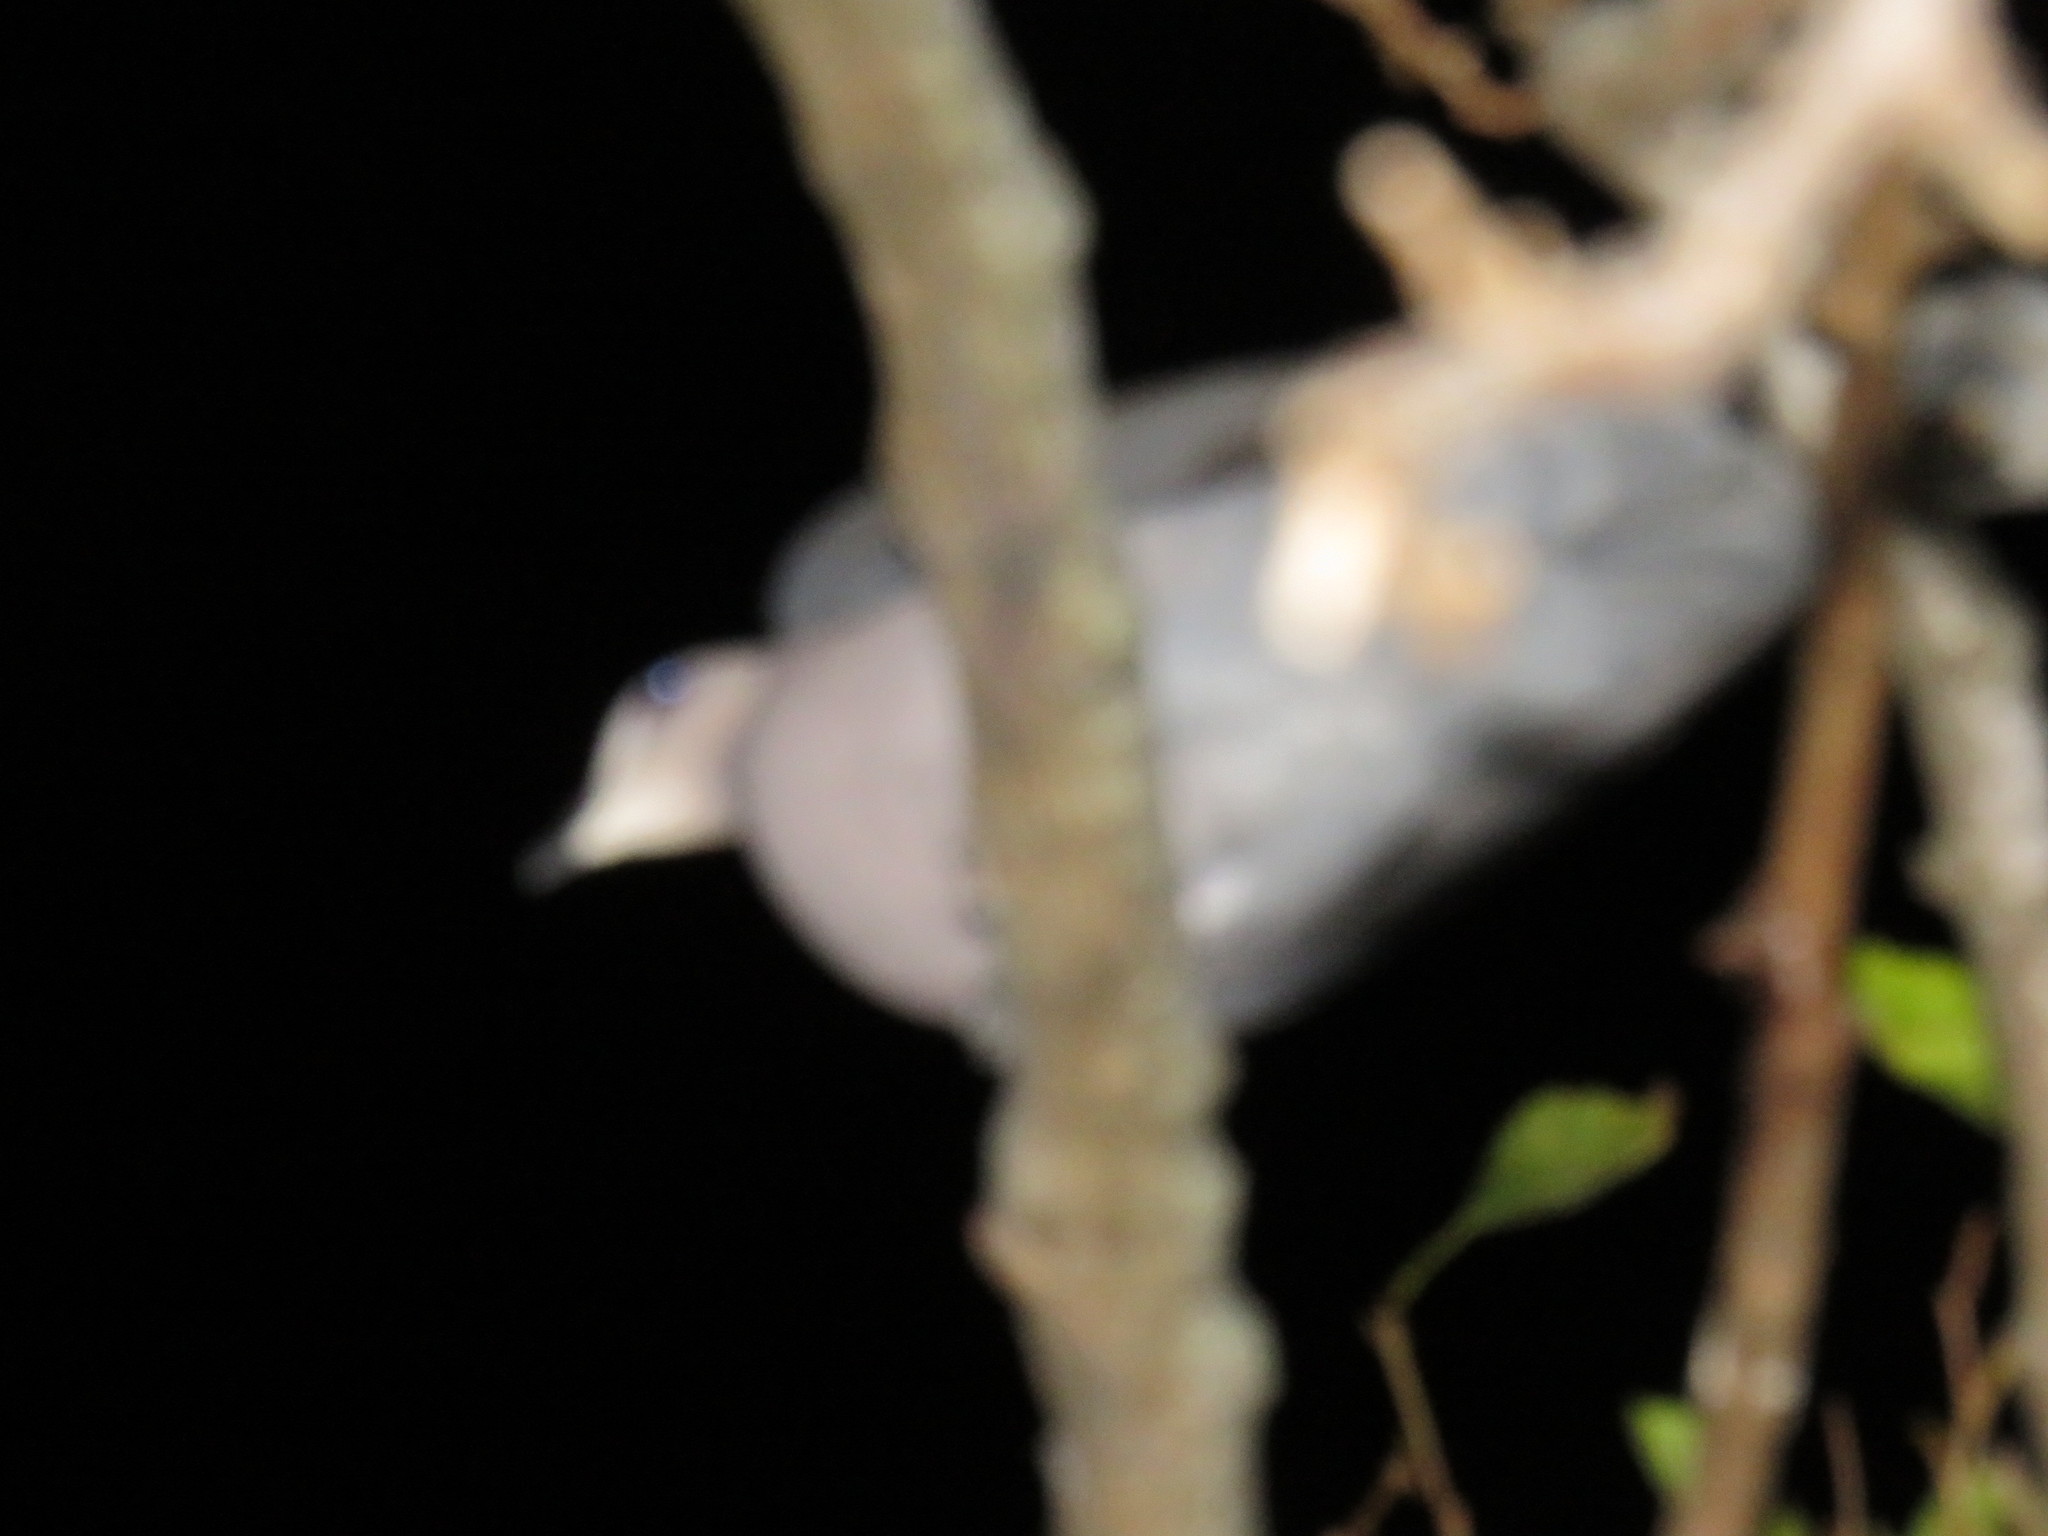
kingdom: Animalia
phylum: Chordata
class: Aves
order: Columbiformes
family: Columbidae
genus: Streptopelia
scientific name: Streptopelia semitorquata
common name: Red-eyed dove
